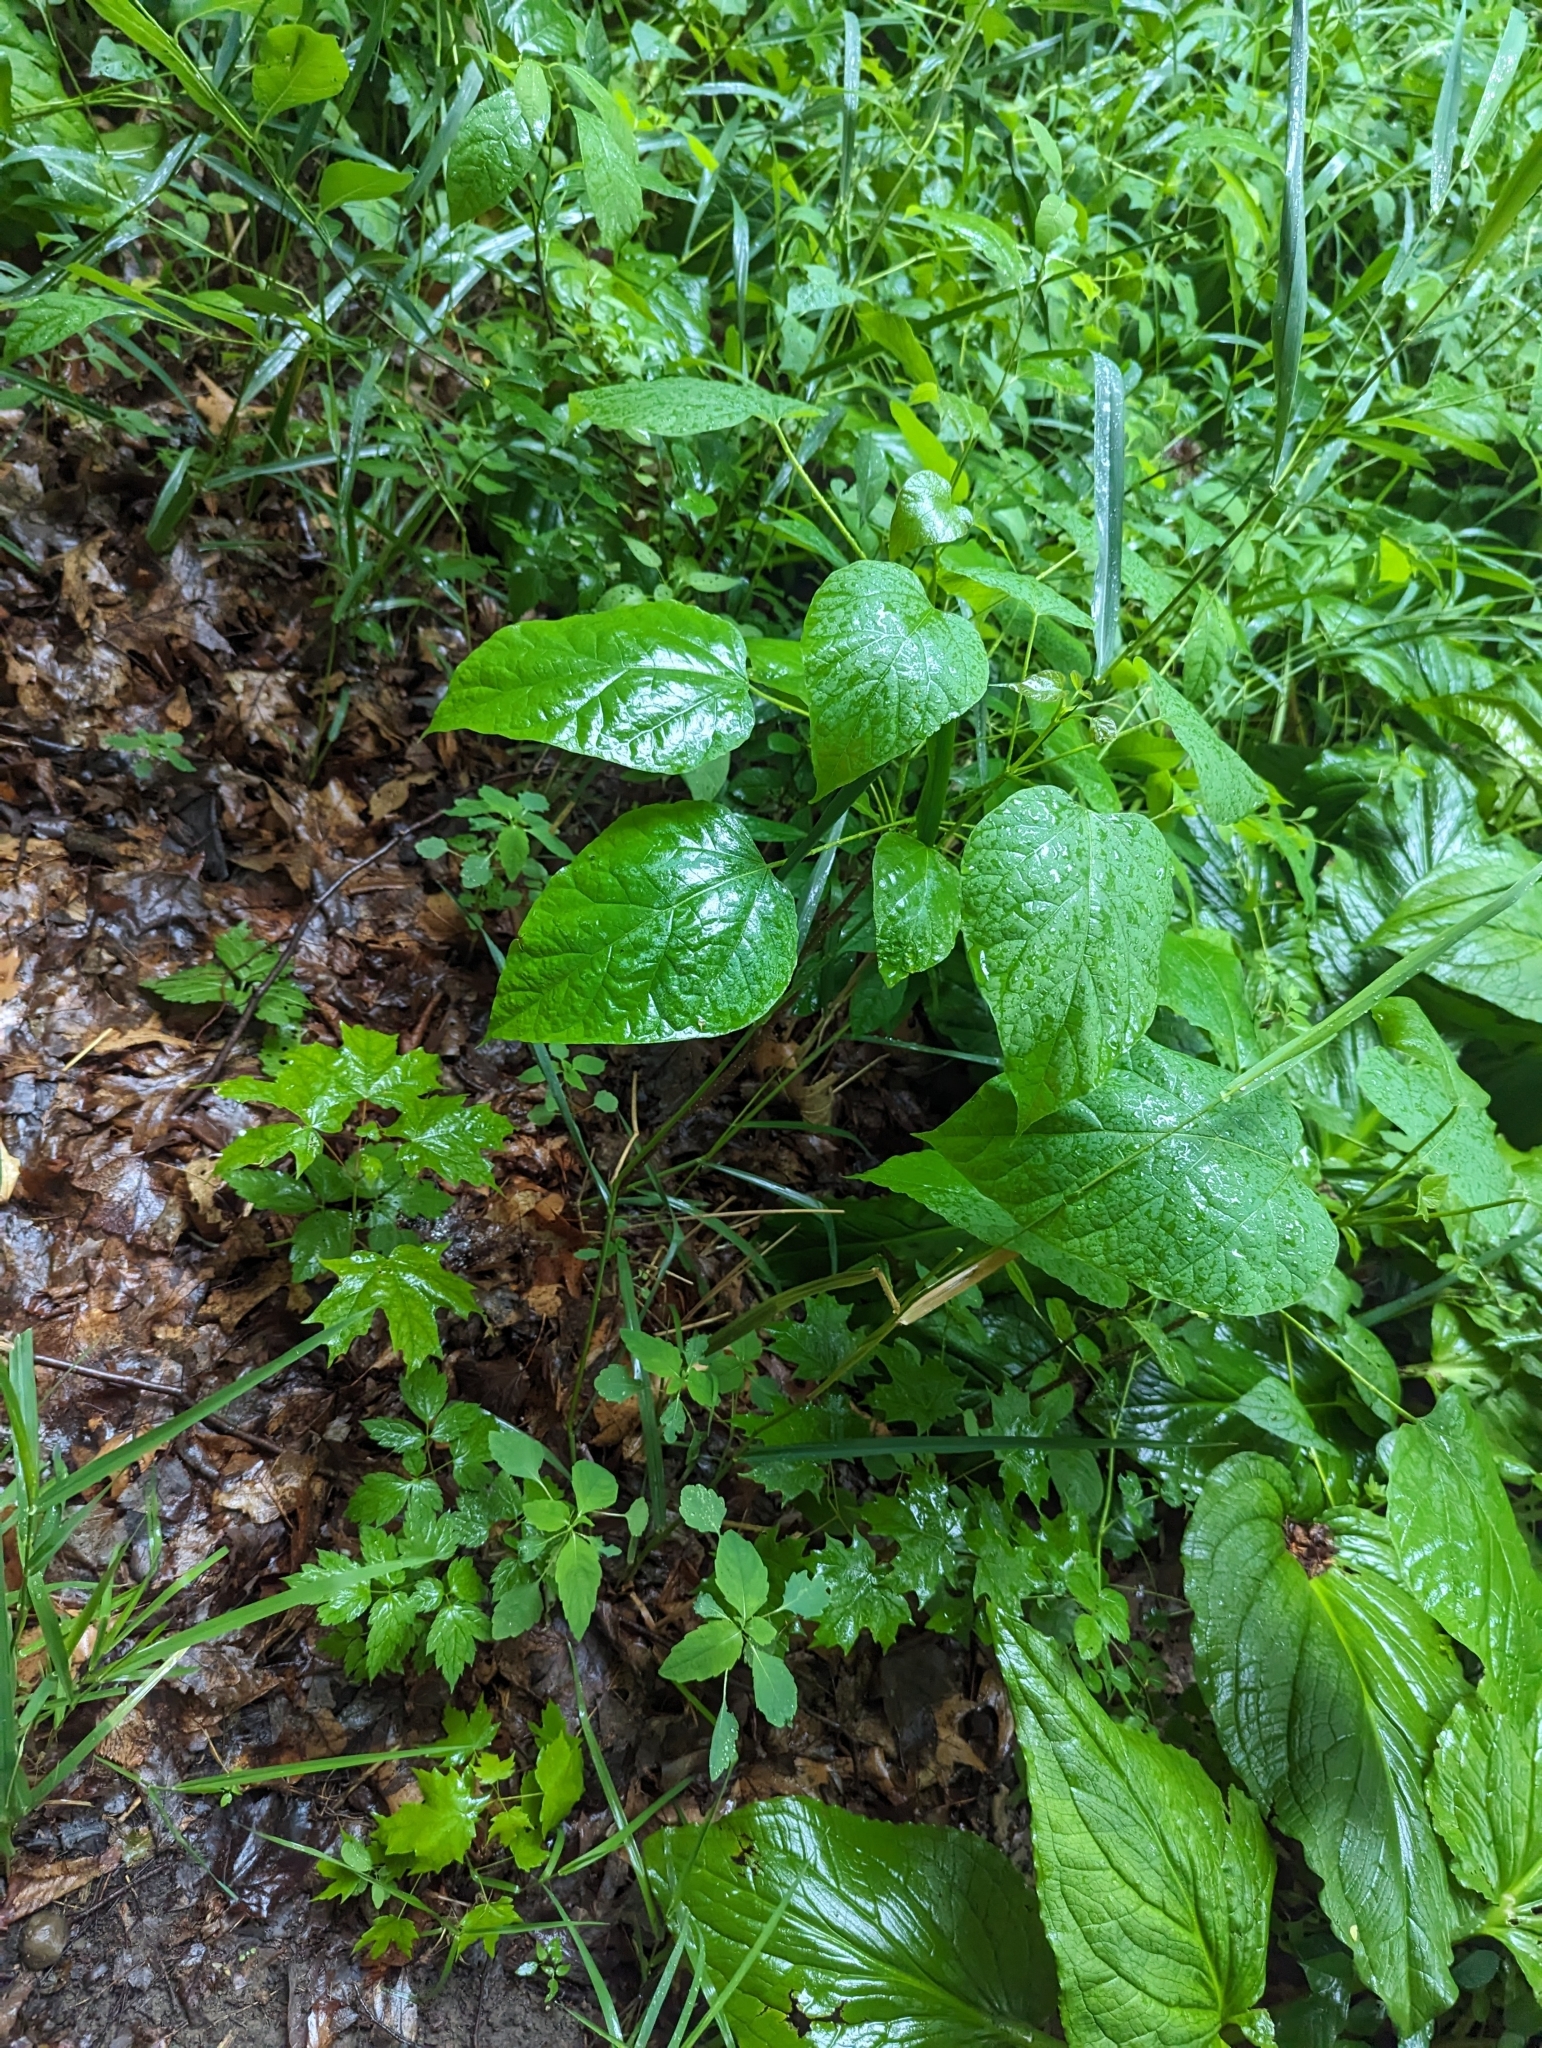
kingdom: Plantae
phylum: Tracheophyta
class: Magnoliopsida
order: Lamiales
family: Bignoniaceae
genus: Catalpa
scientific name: Catalpa speciosa
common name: Northern catalpa
